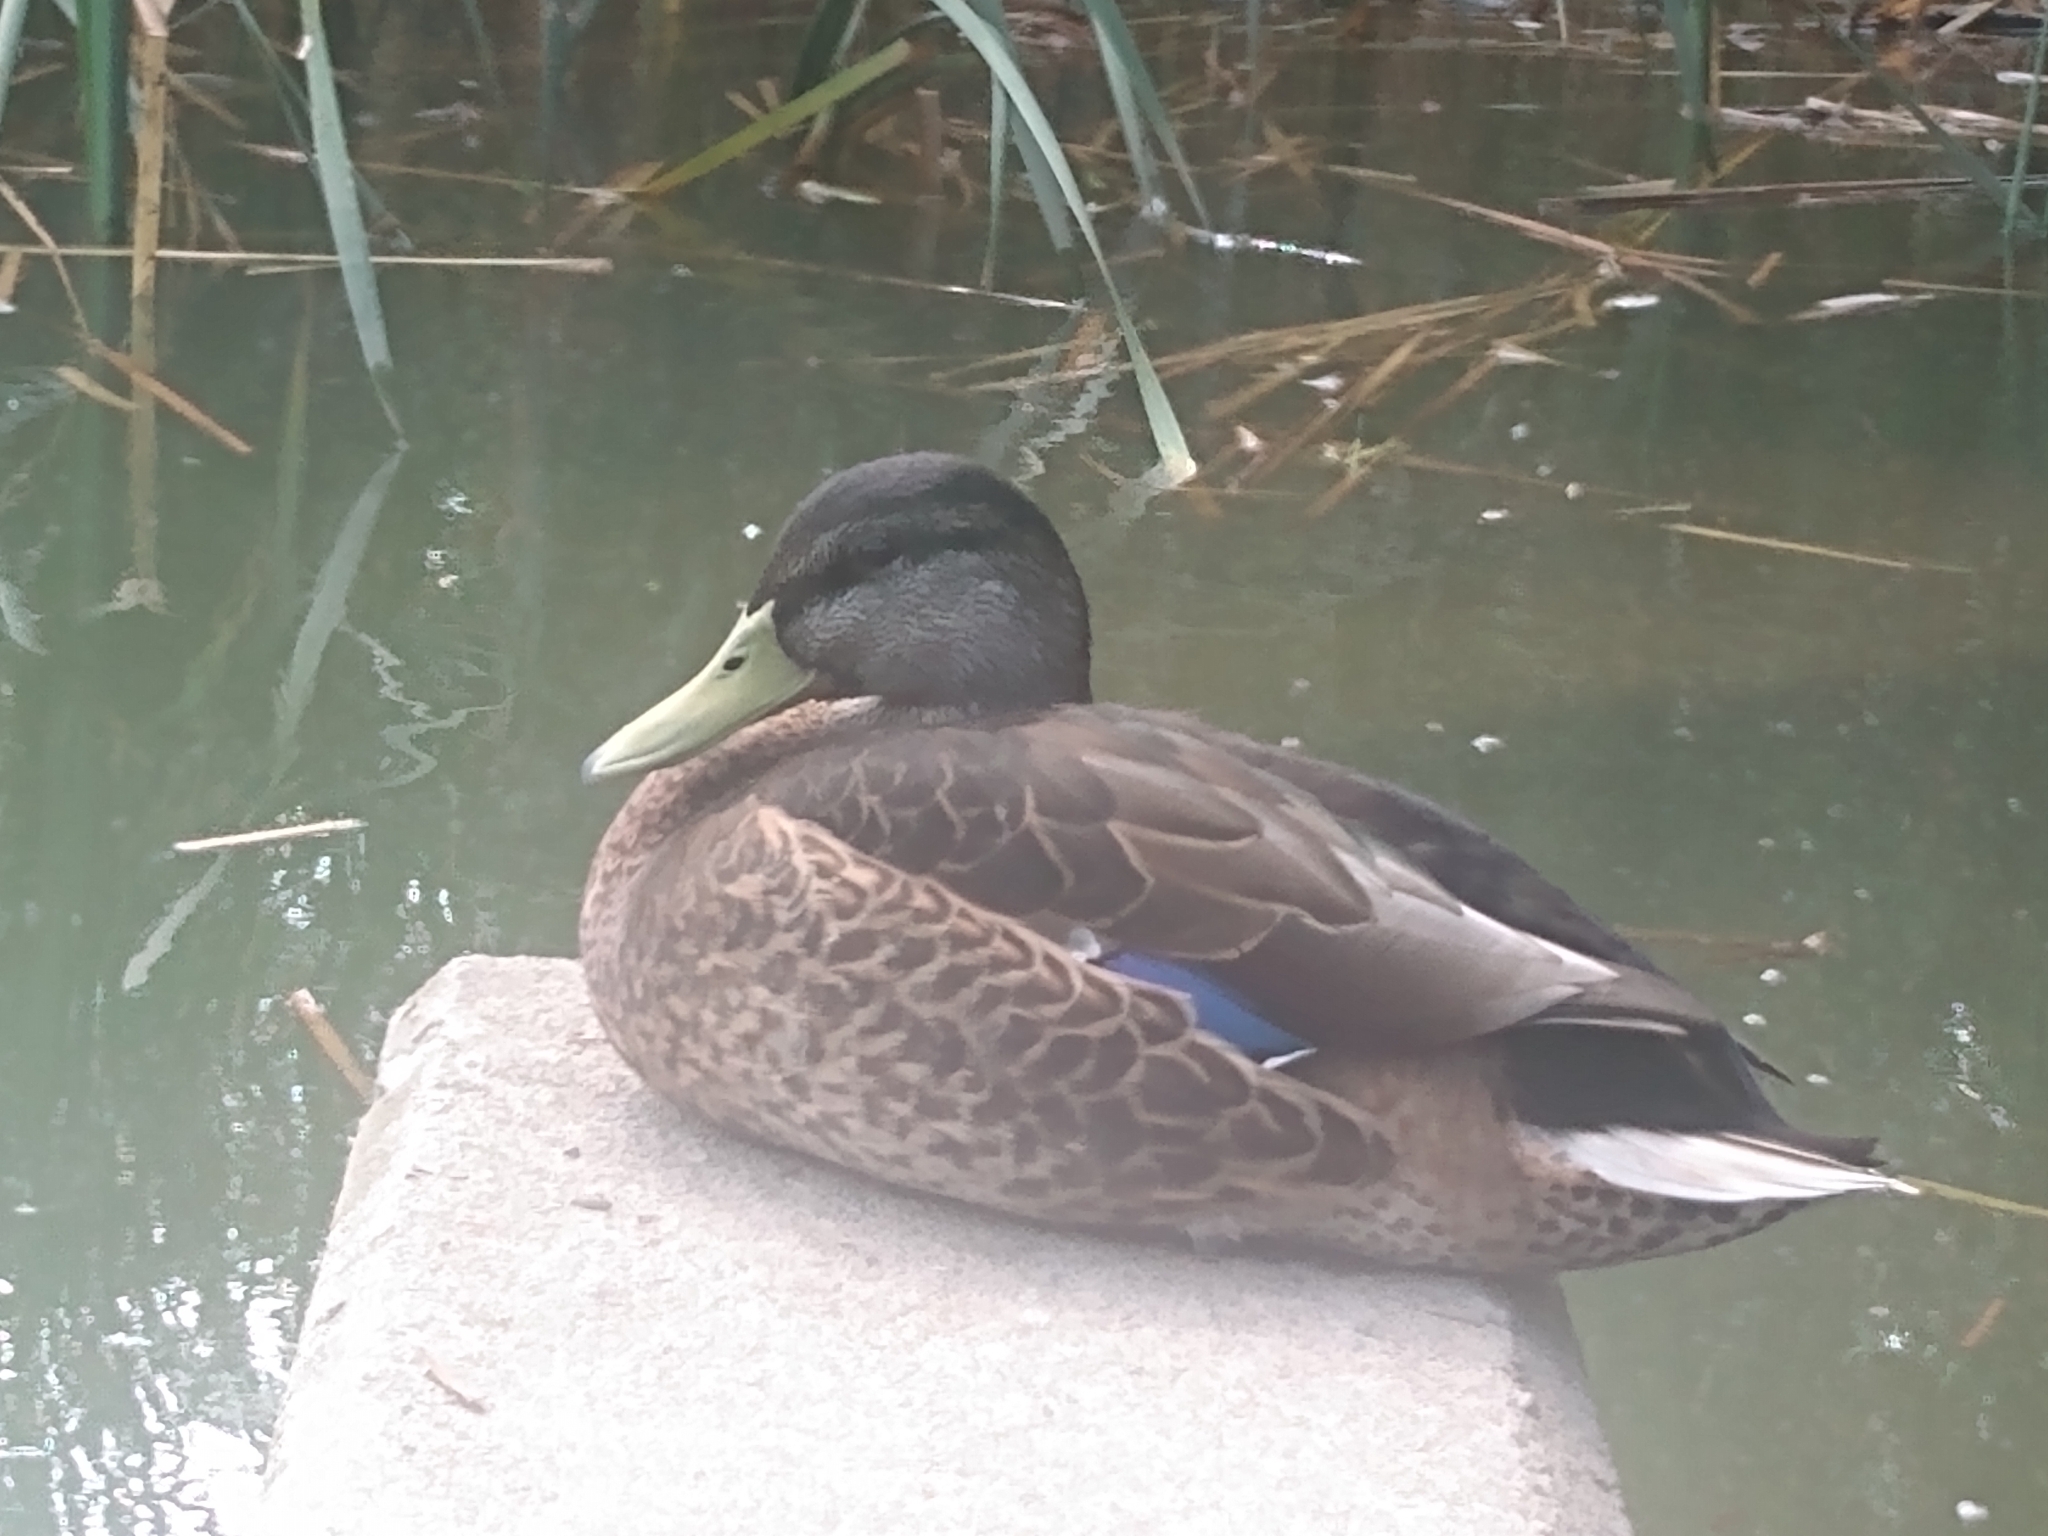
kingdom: Animalia
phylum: Chordata
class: Aves
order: Anseriformes
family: Anatidae
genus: Anas
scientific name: Anas platyrhynchos
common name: Mallard
